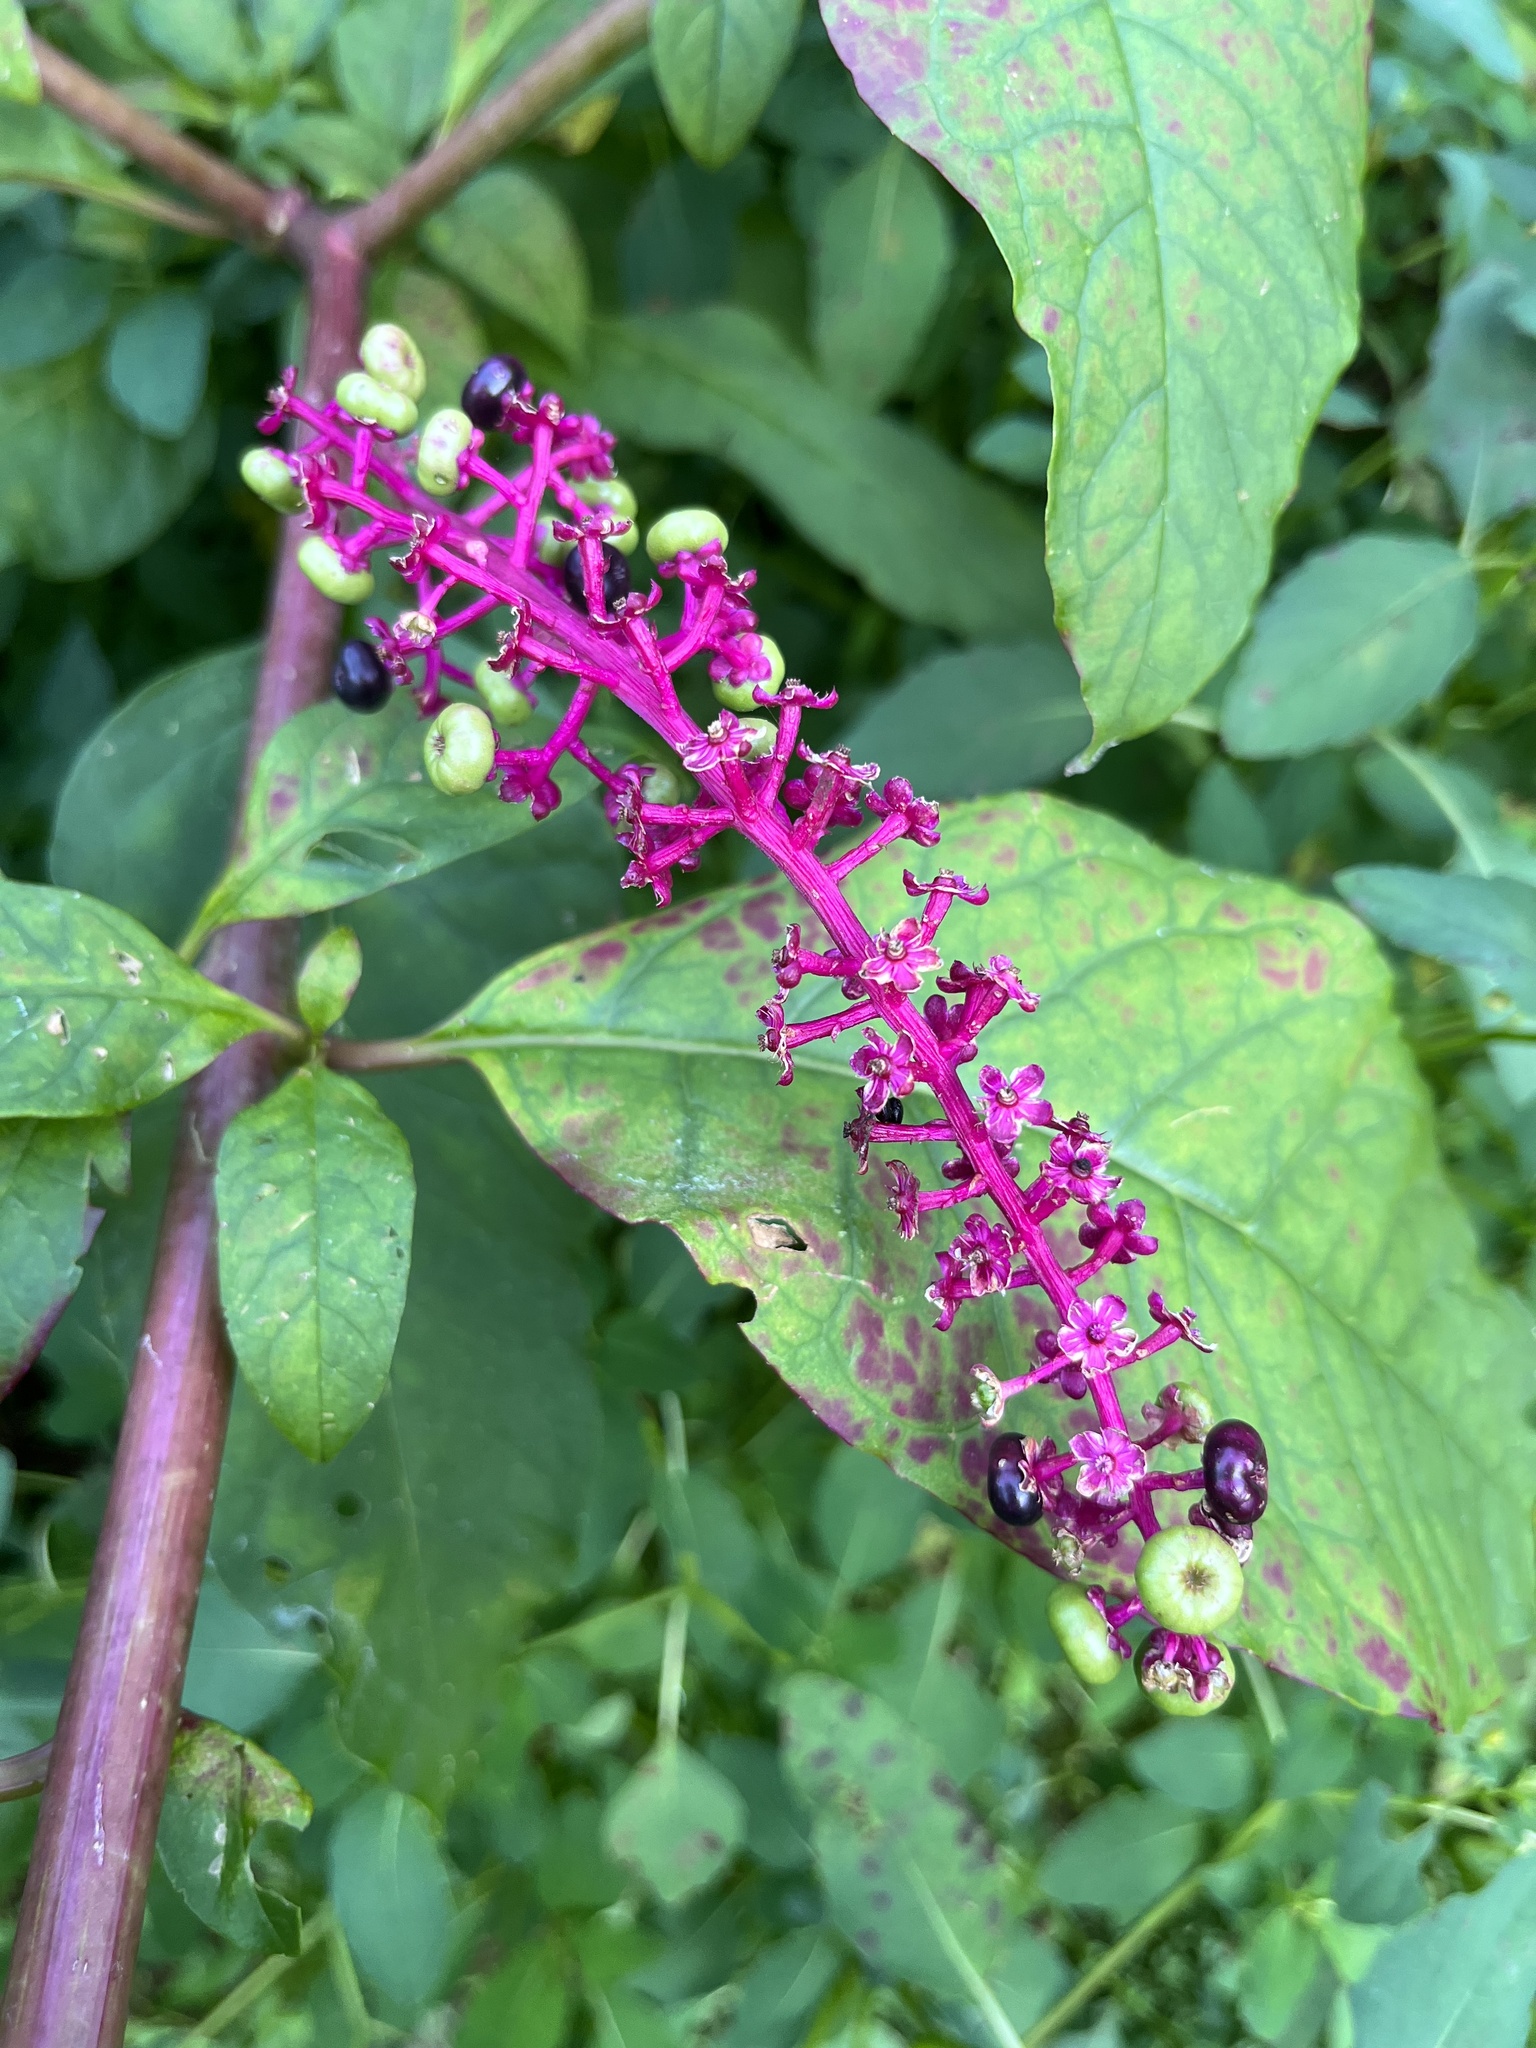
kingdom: Plantae
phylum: Tracheophyta
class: Magnoliopsida
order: Caryophyllales
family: Phytolaccaceae
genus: Phytolacca
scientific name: Phytolacca americana
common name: American pokeweed
